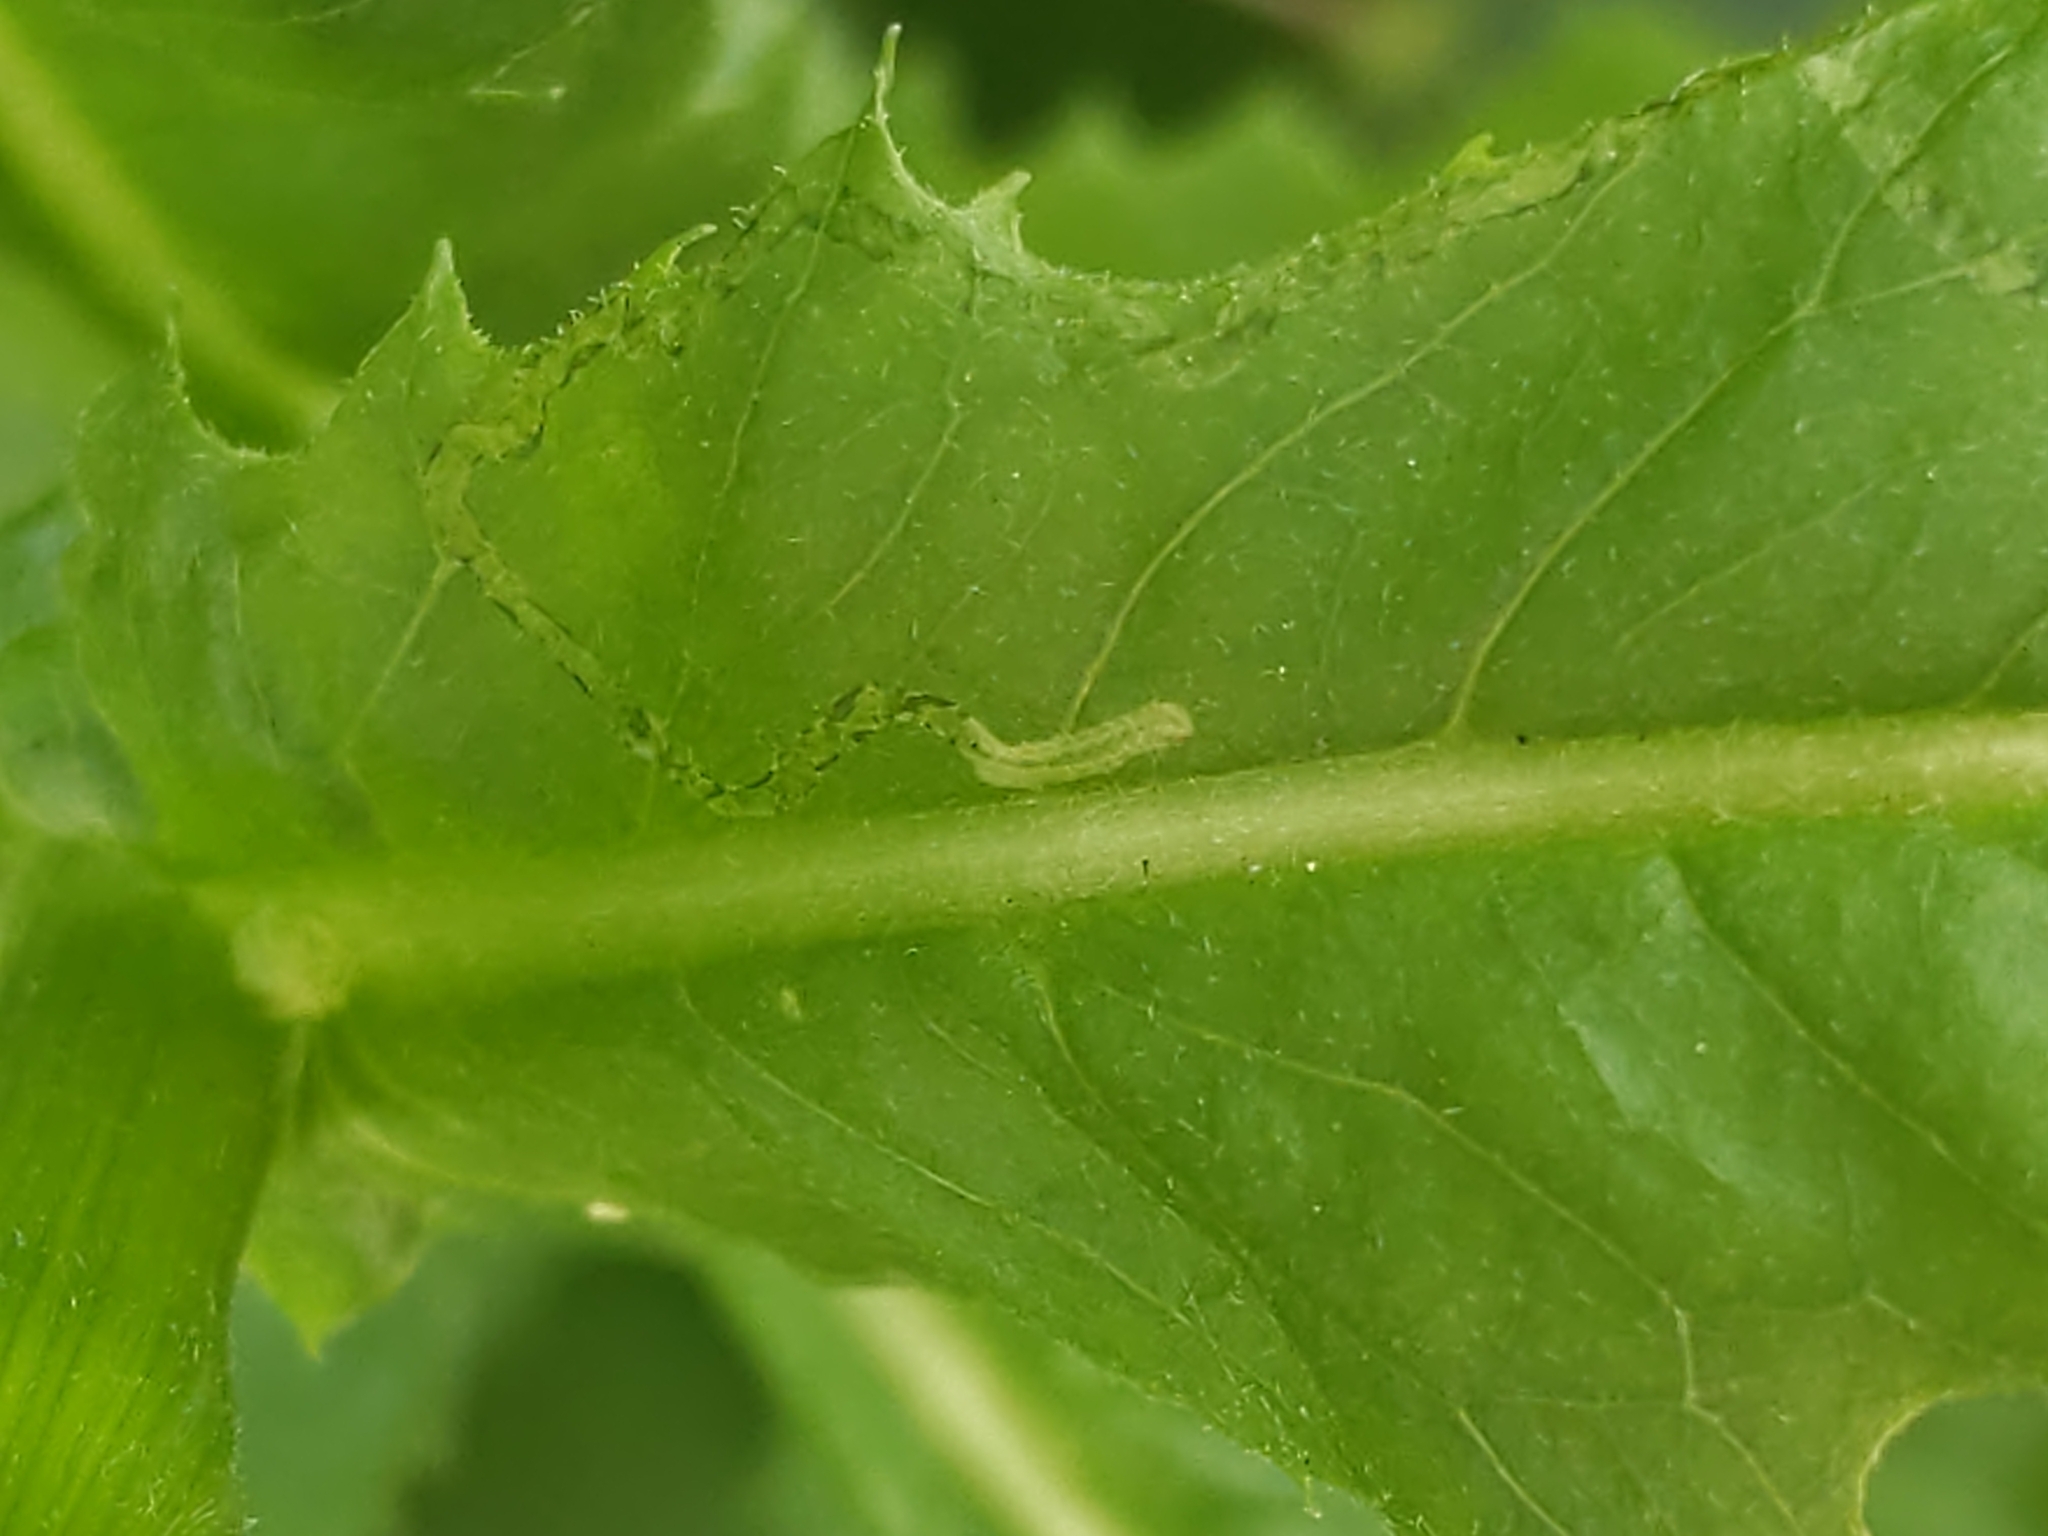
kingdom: Animalia
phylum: Arthropoda
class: Insecta
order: Lepidoptera
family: Gracillariidae
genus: Phyllocnistis
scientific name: Phyllocnistis insignis
